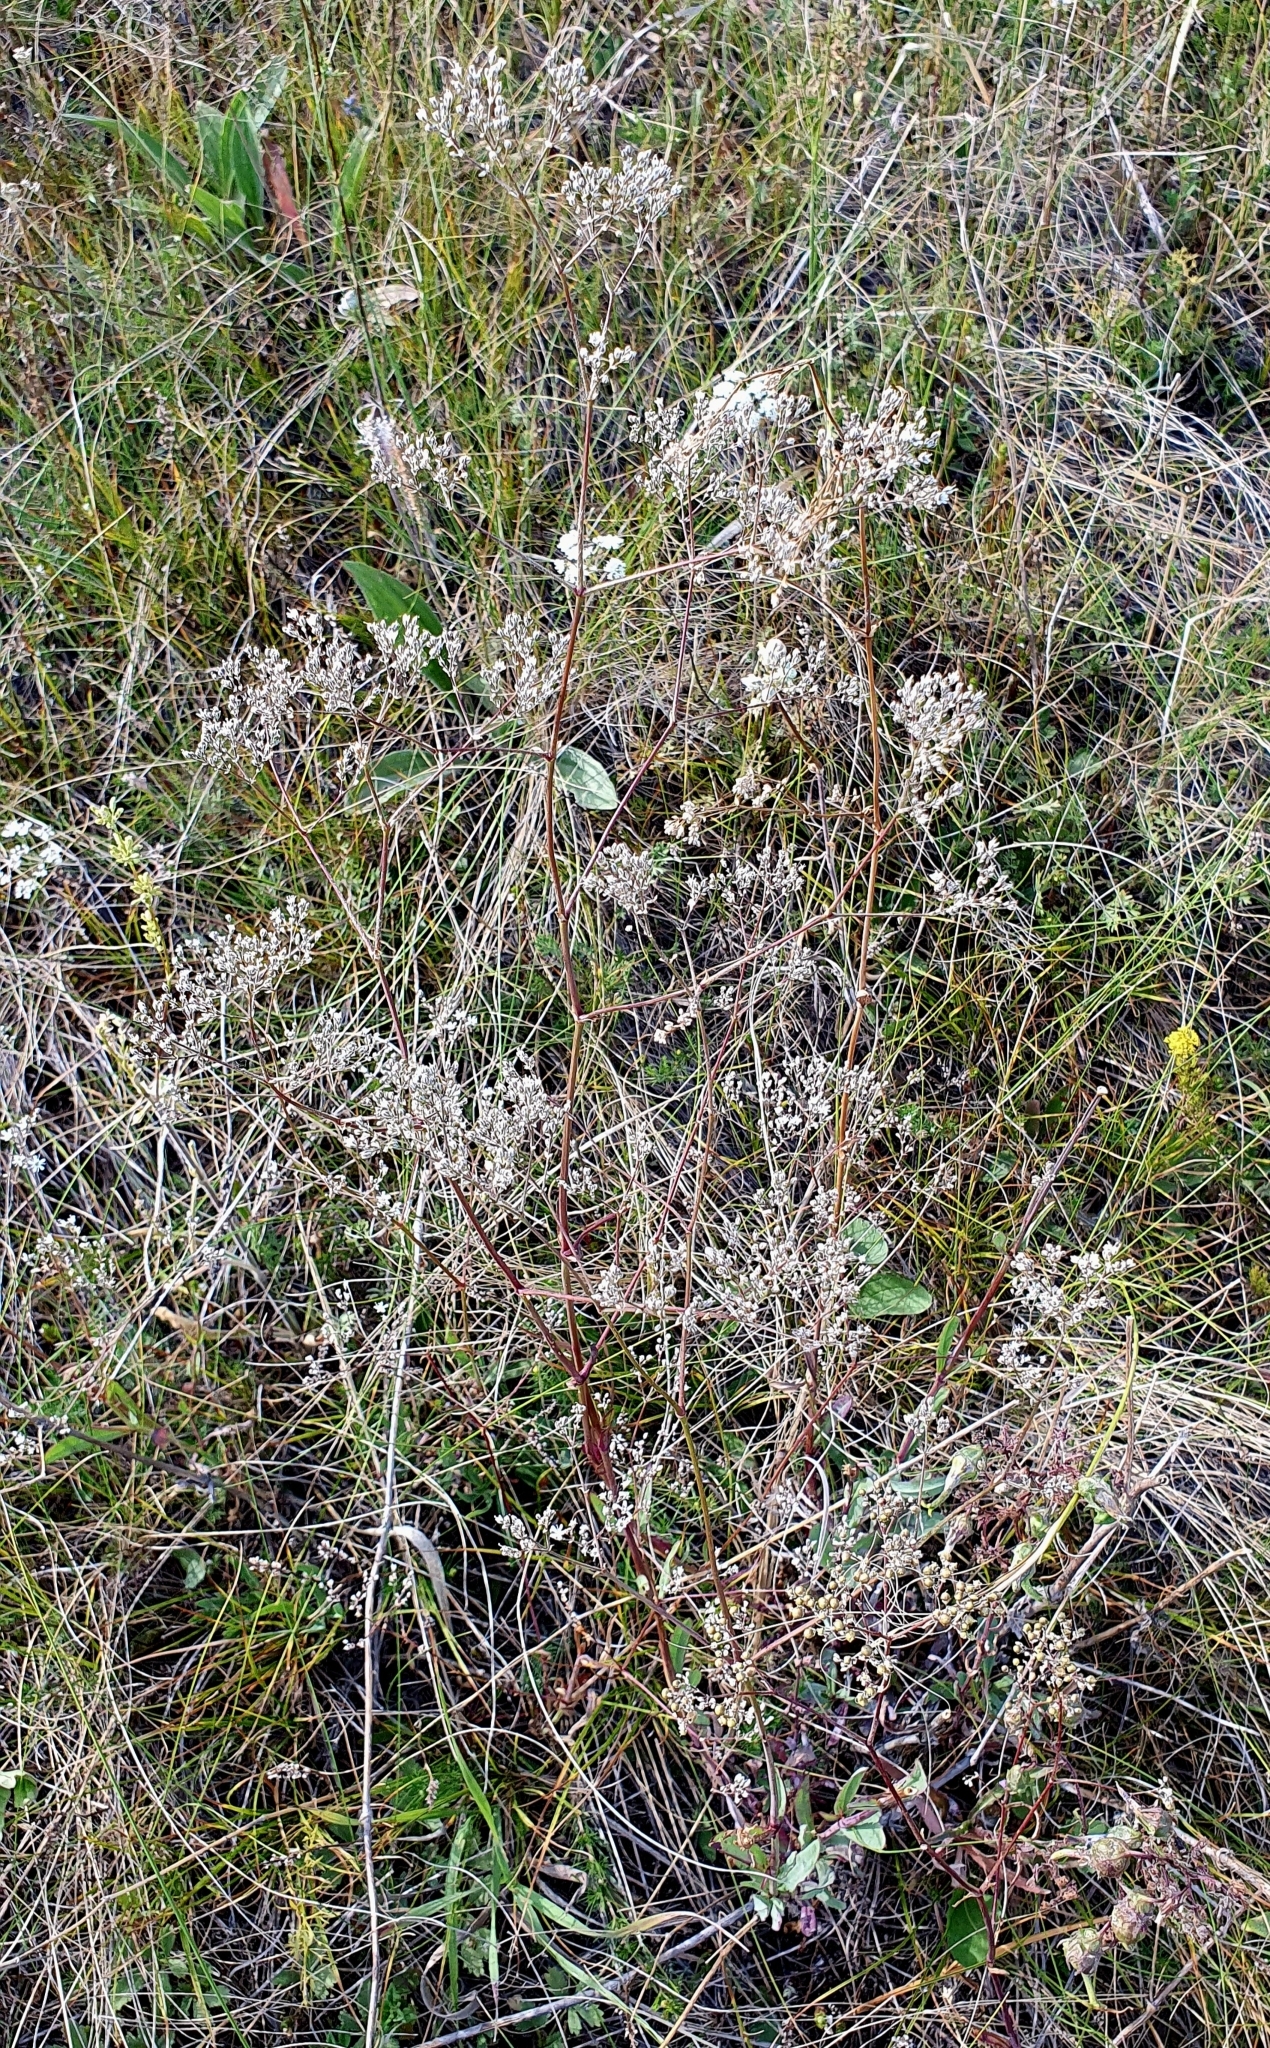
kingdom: Plantae
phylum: Tracheophyta
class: Magnoliopsida
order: Caryophyllales
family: Caryophyllaceae
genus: Gypsophila
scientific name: Gypsophila altissima
